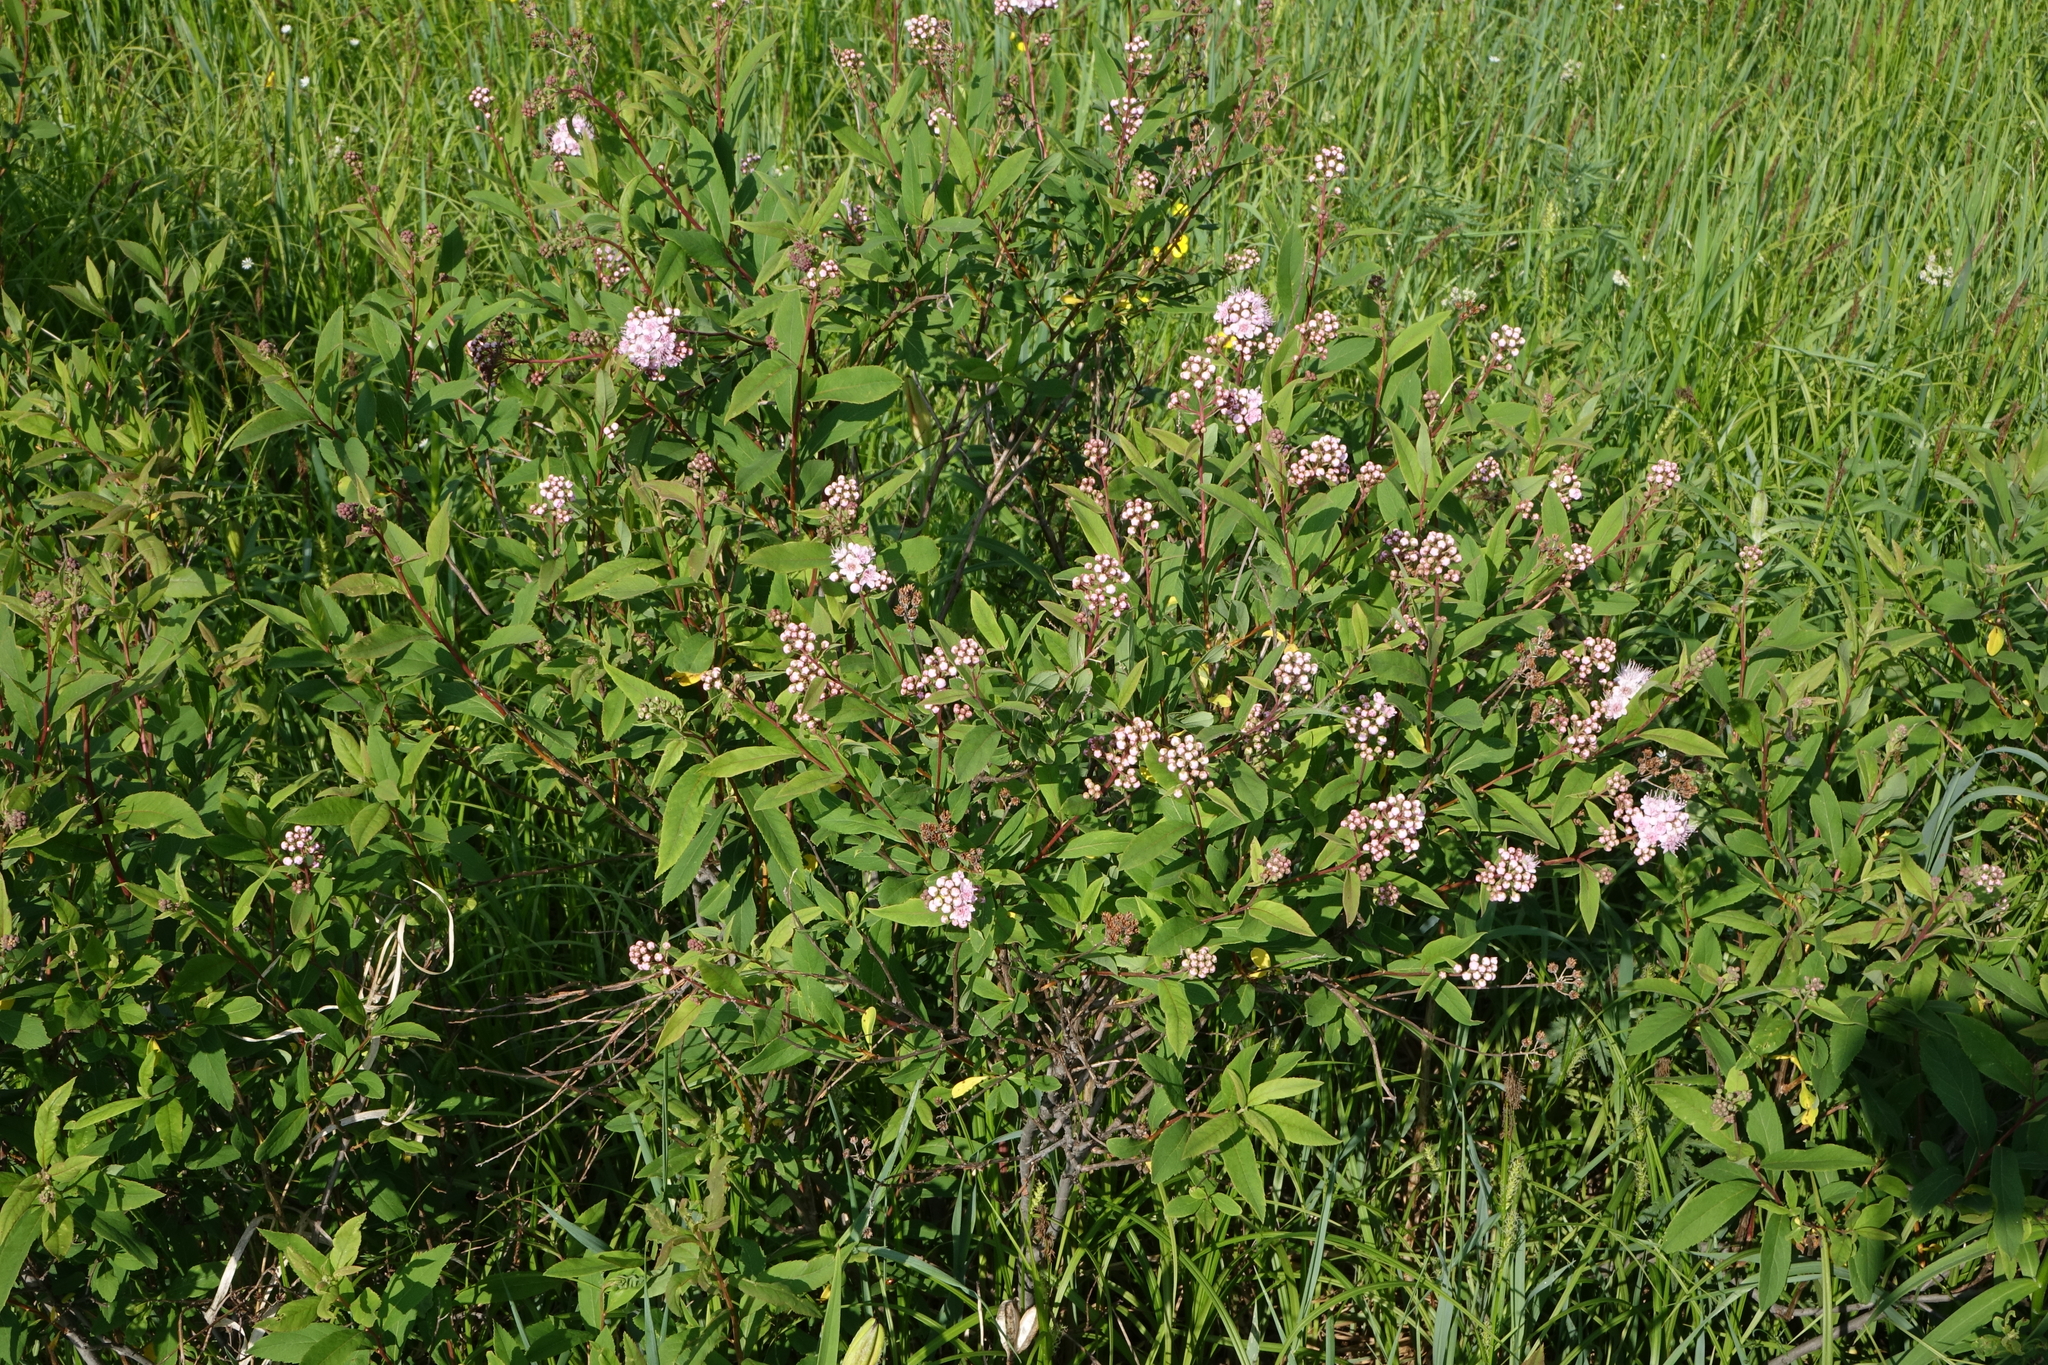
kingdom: Plantae
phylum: Tracheophyta
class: Magnoliopsida
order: Rosales
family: Rosaceae
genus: Spiraea
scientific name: Spiraea salicifolia
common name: Bridewort
